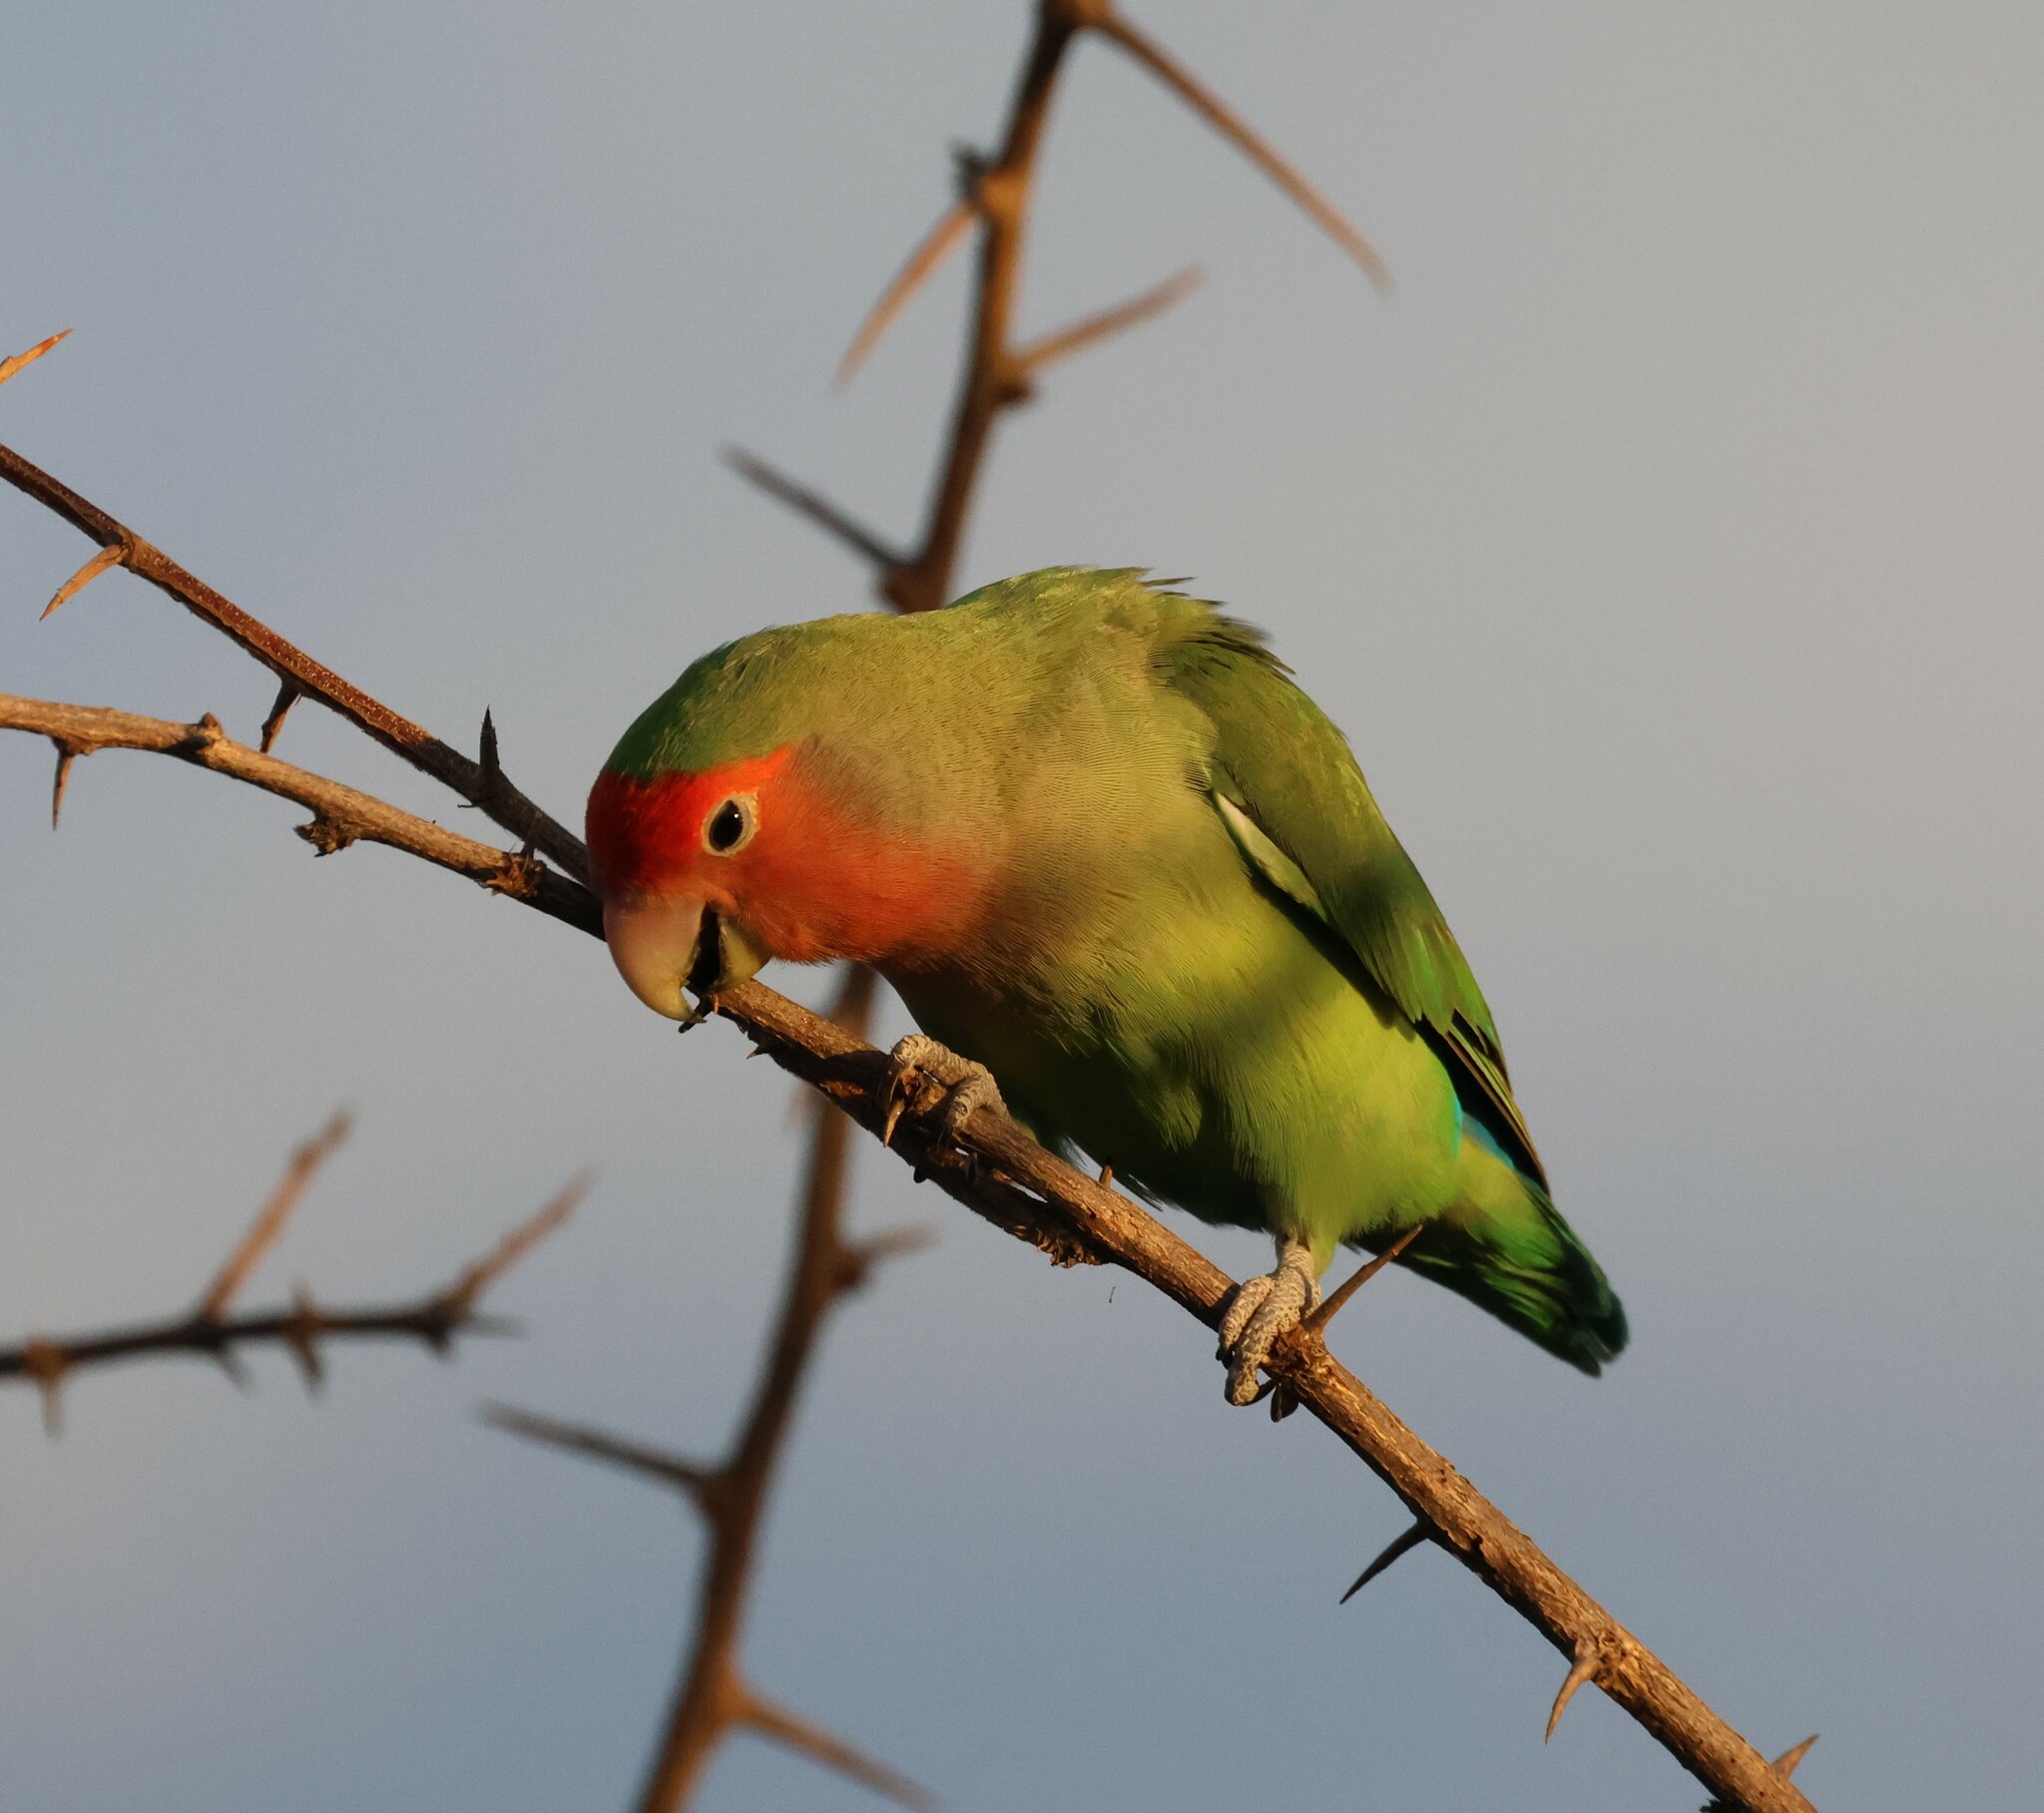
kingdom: Animalia
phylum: Chordata
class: Aves
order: Psittaciformes
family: Psittacidae
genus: Agapornis
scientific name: Agapornis roseicollis
